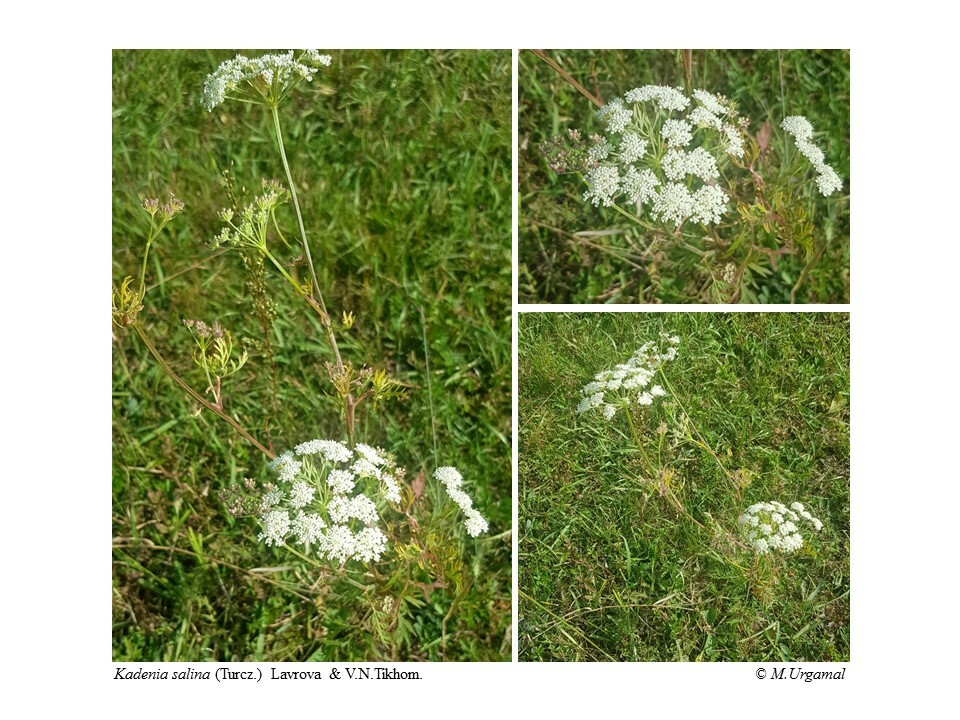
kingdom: Plantae
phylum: Tracheophyta
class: Magnoliopsida
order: Apiales
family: Apiaceae
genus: Kadenia
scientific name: Kadenia salina
